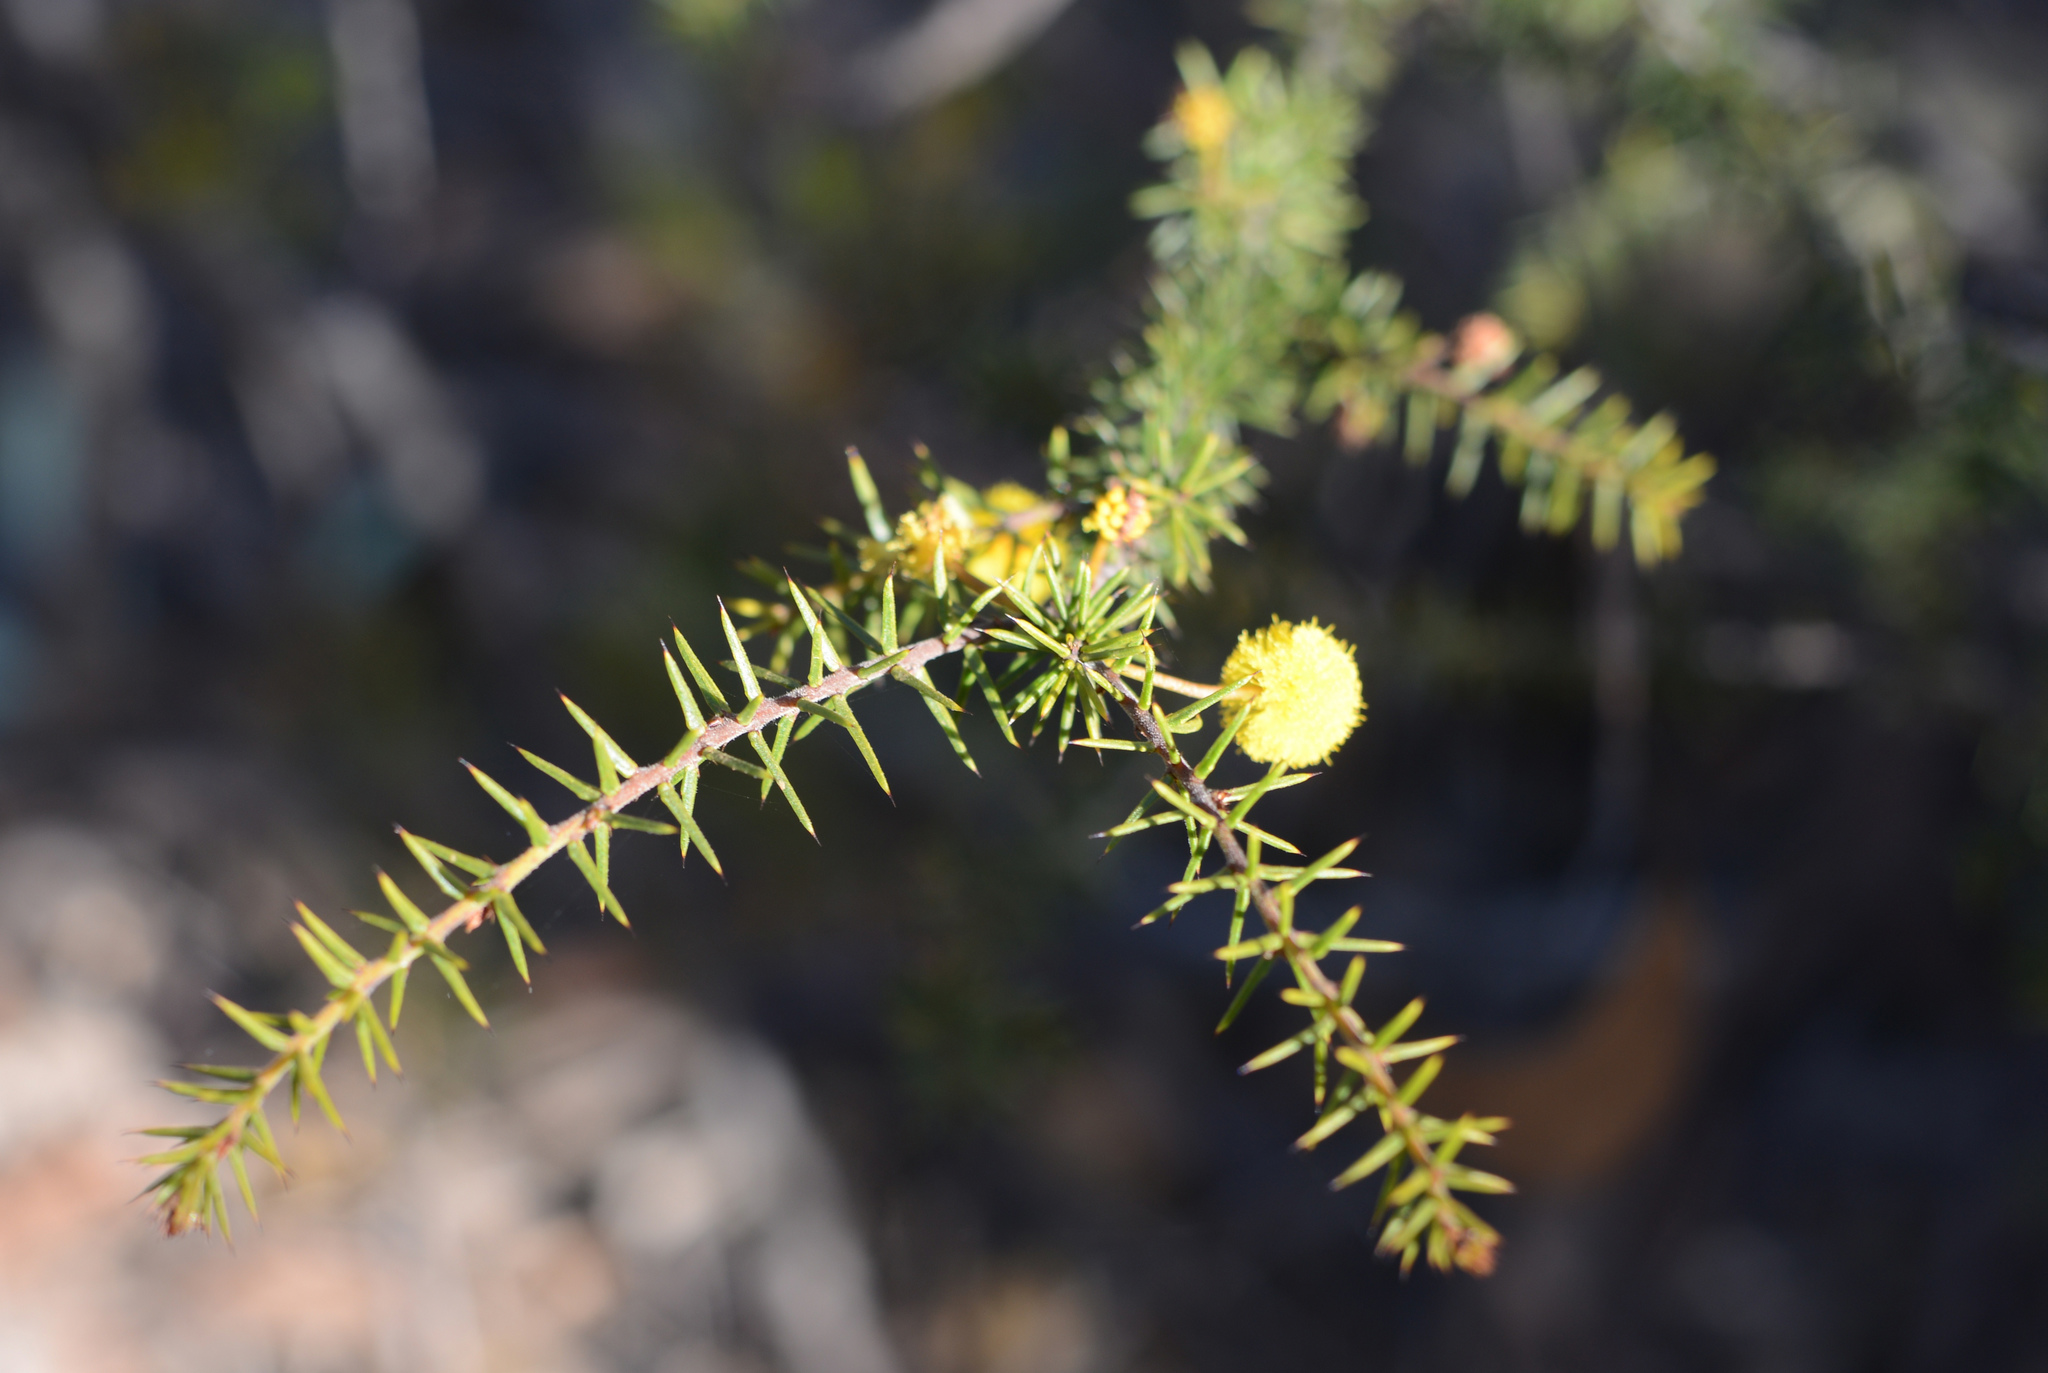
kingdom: Plantae
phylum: Tracheophyta
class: Magnoliopsida
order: Fabales
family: Fabaceae
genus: Acacia
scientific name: Acacia ulicifolia
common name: Juniper wattle
